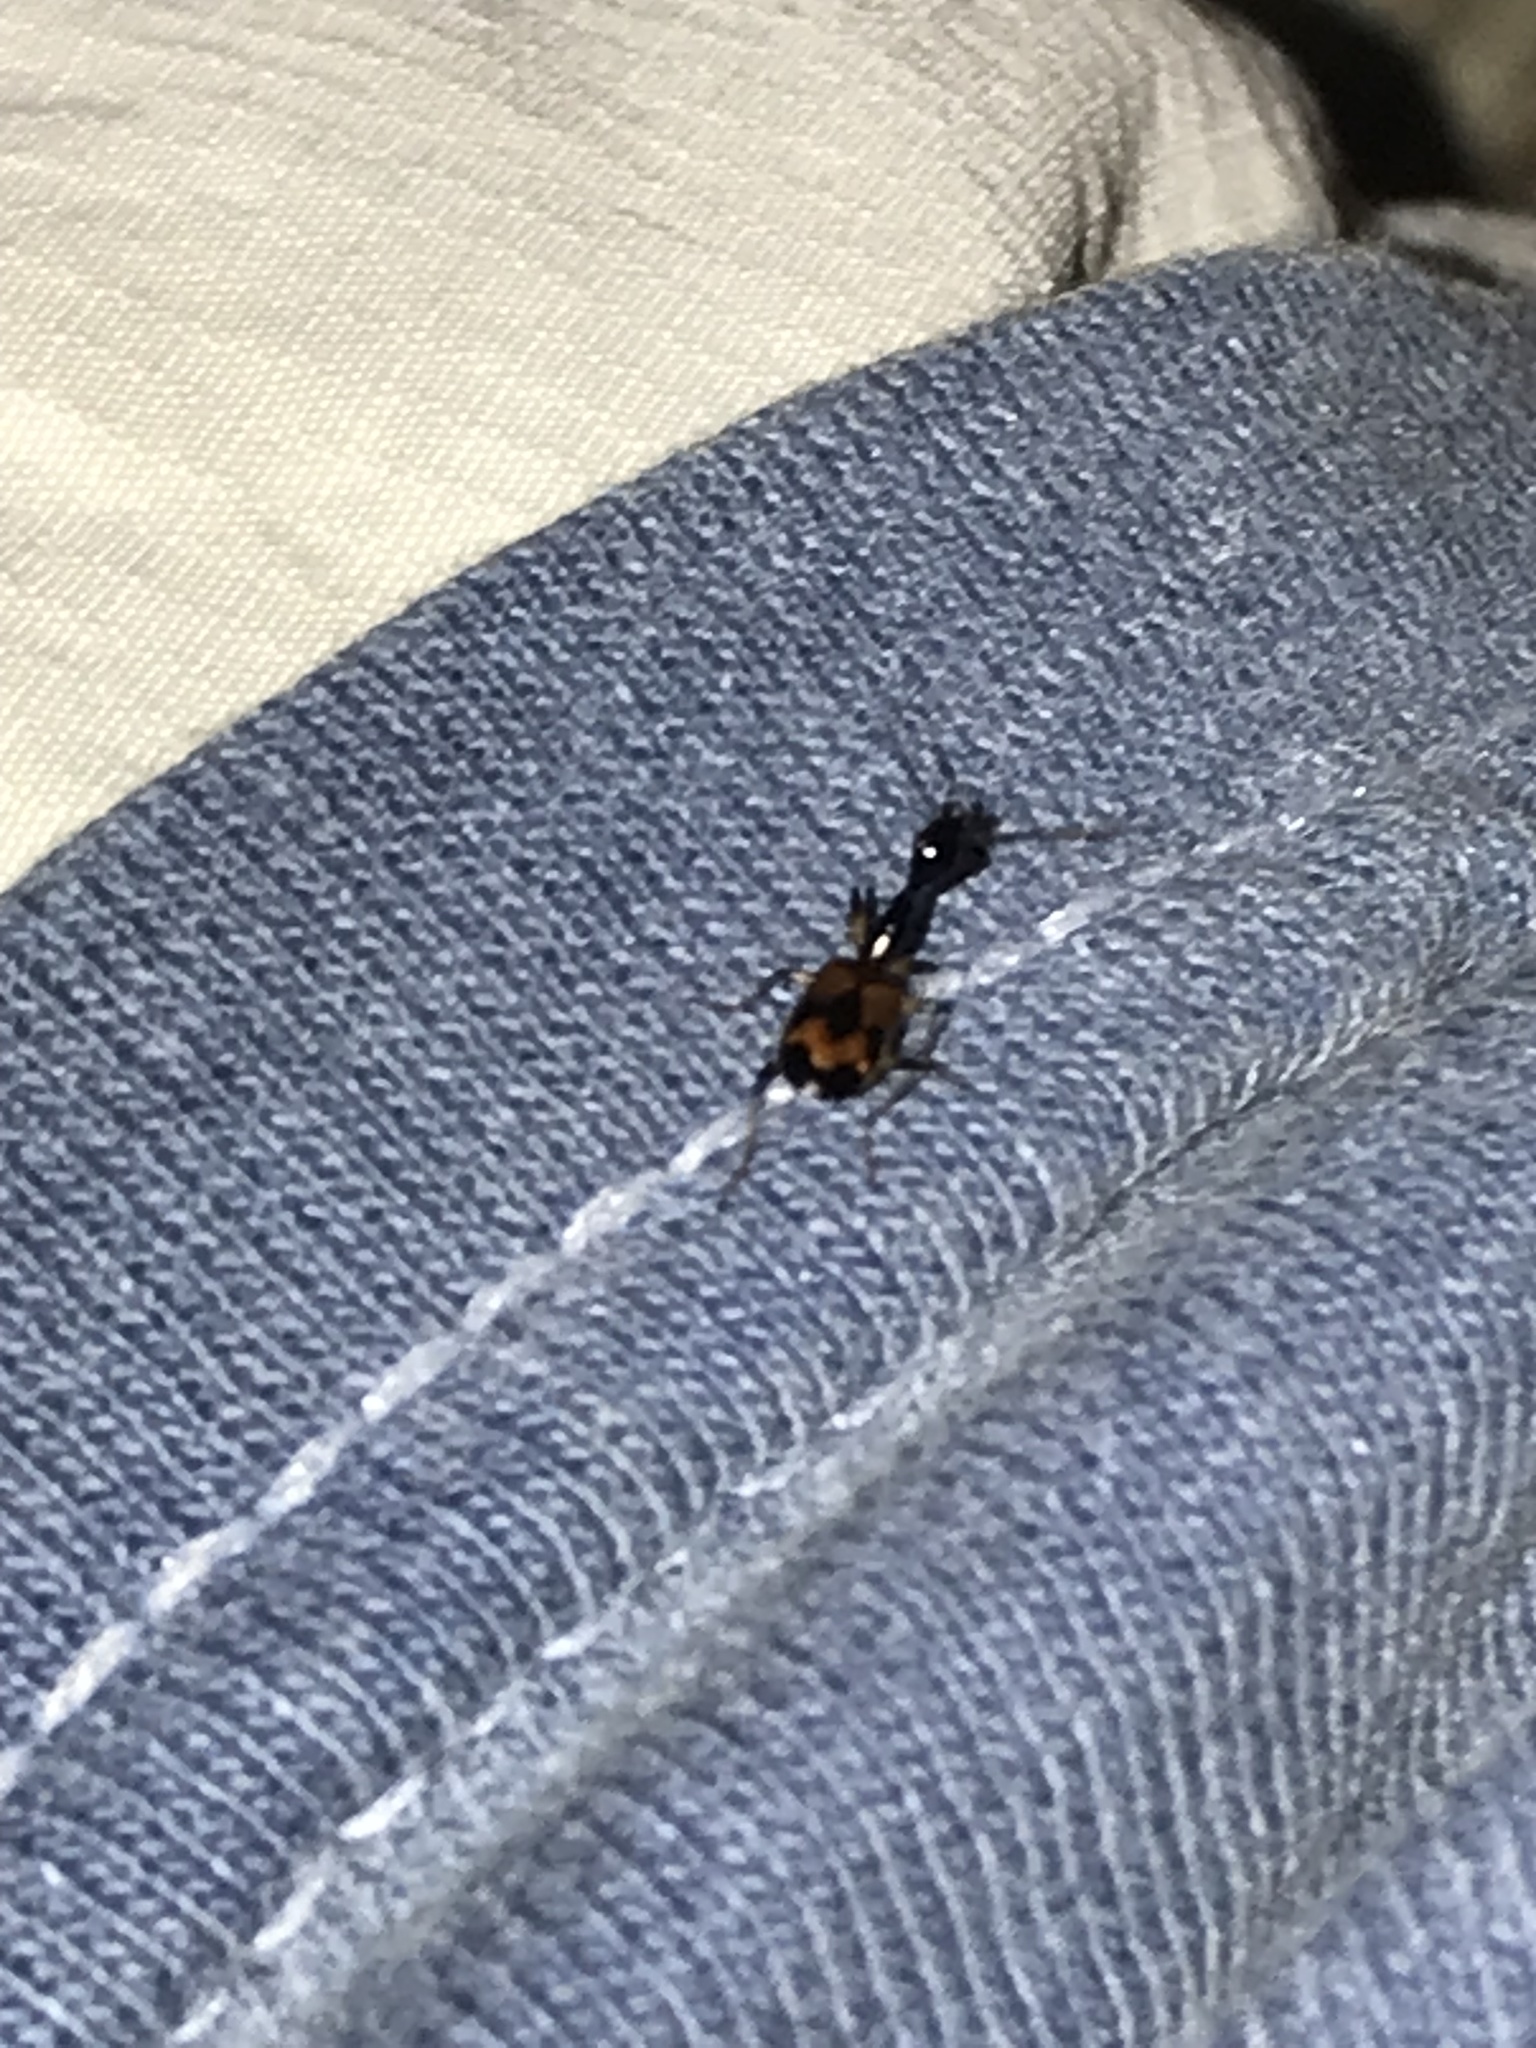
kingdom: Animalia
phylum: Arthropoda
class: Insecta
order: Coleoptera
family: Carabidae
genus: Colliuris
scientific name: Colliuris pensylvanica
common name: Long-necked ground beetle
